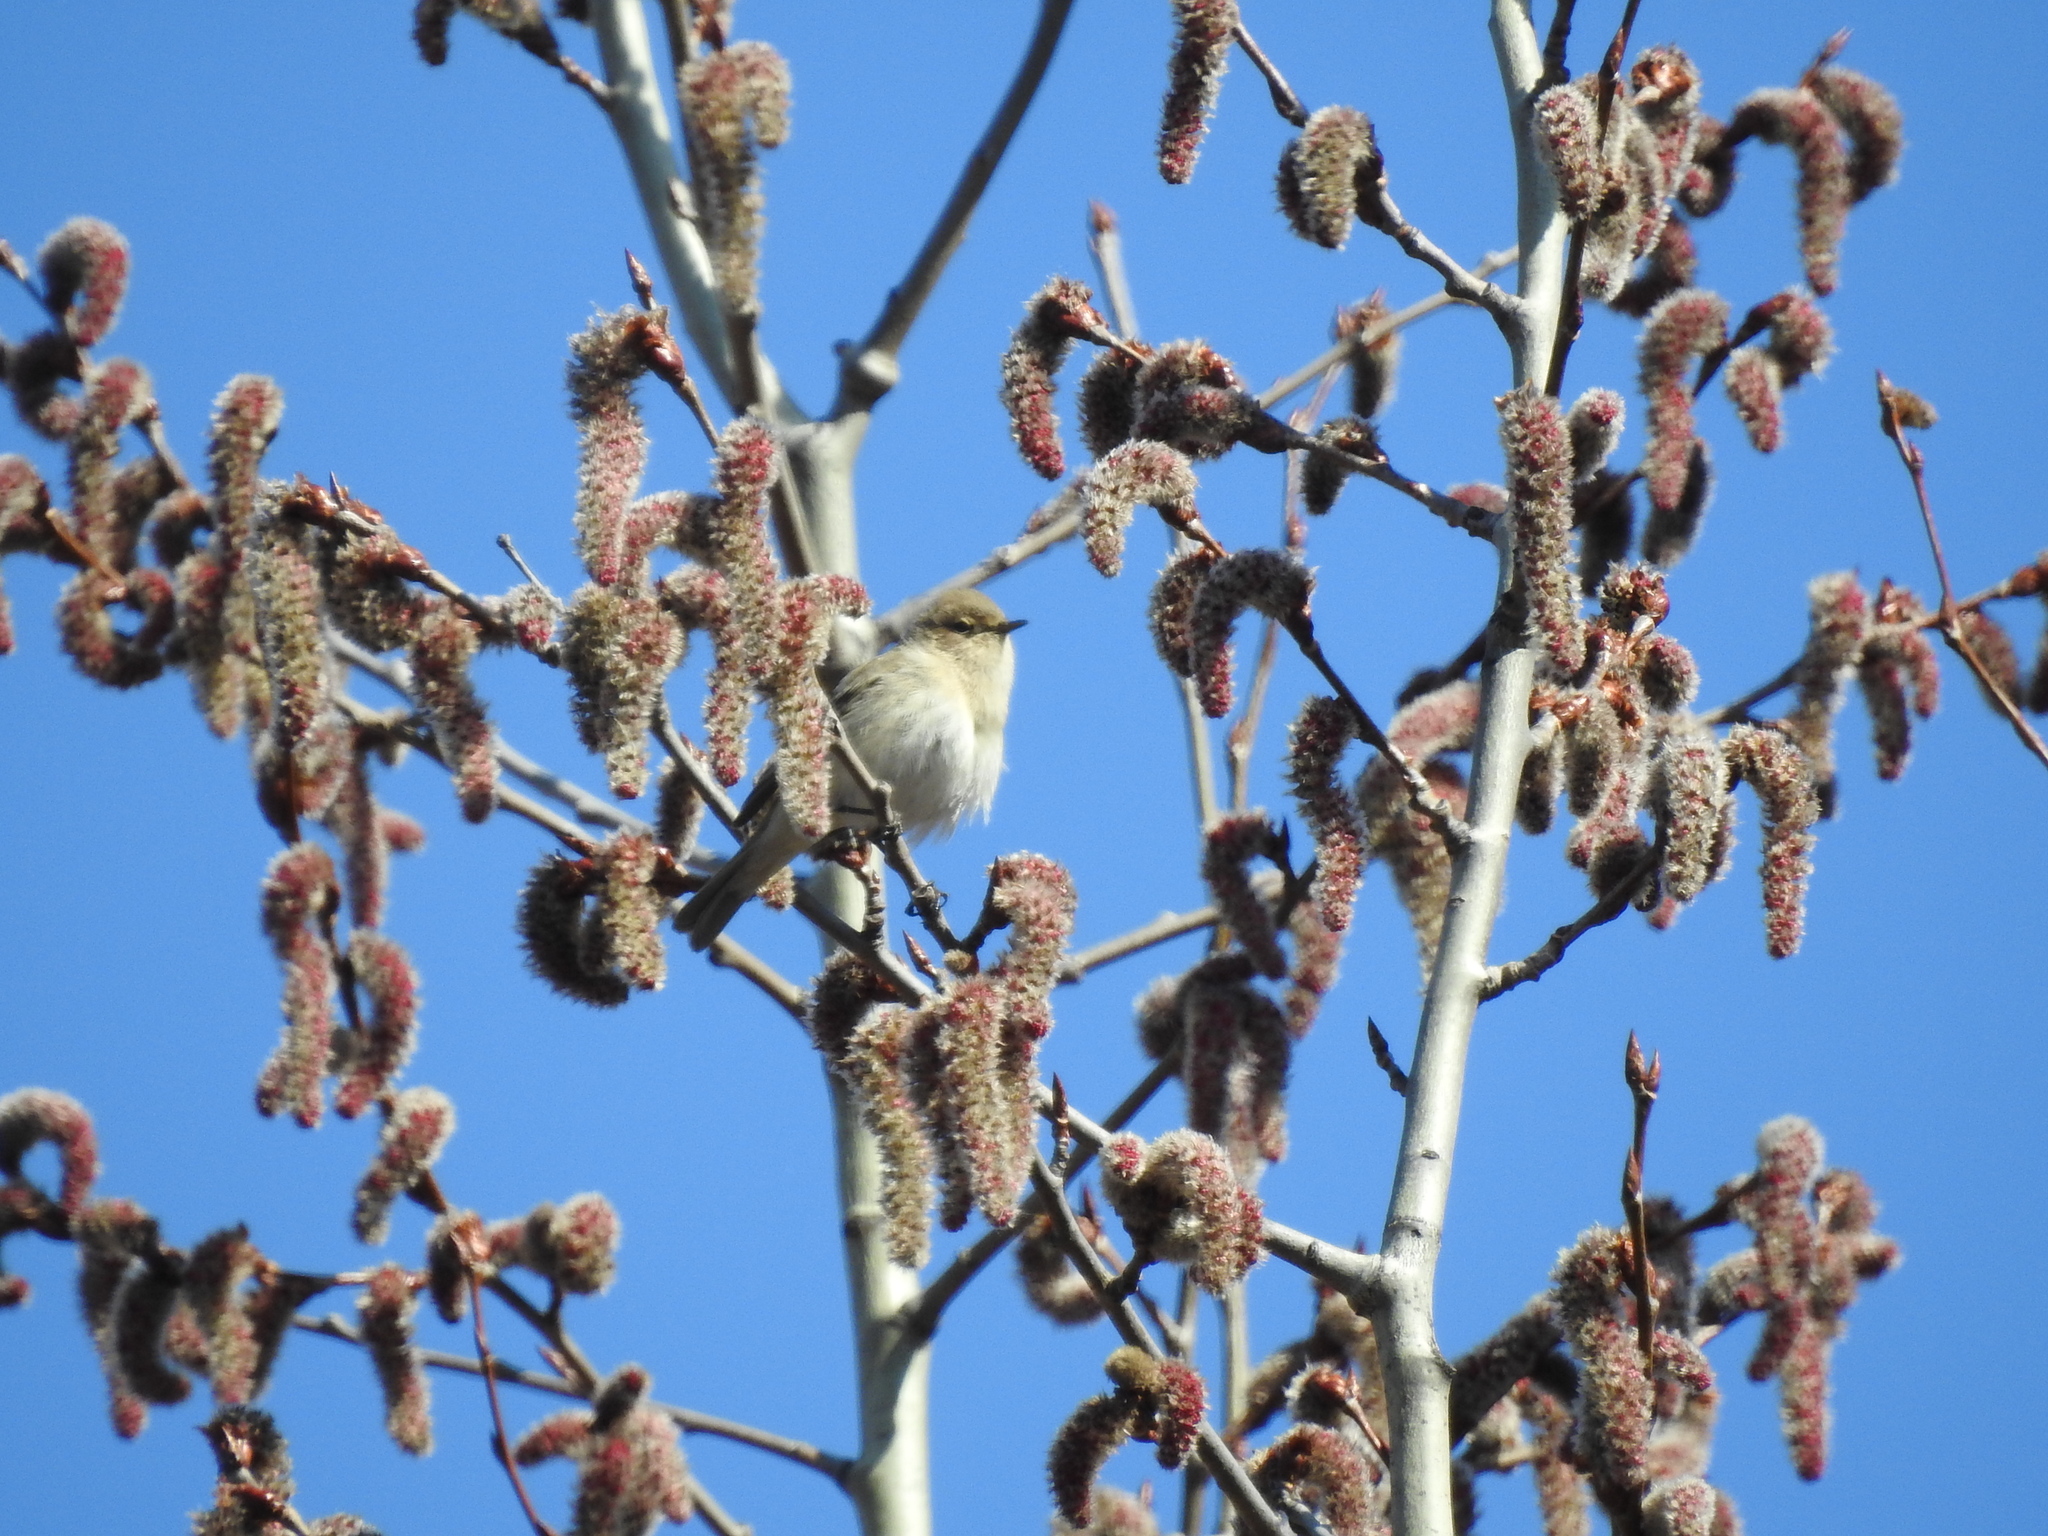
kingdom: Animalia
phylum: Chordata
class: Aves
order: Passeriformes
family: Phylloscopidae
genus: Phylloscopus
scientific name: Phylloscopus collybita
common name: Common chiffchaff
